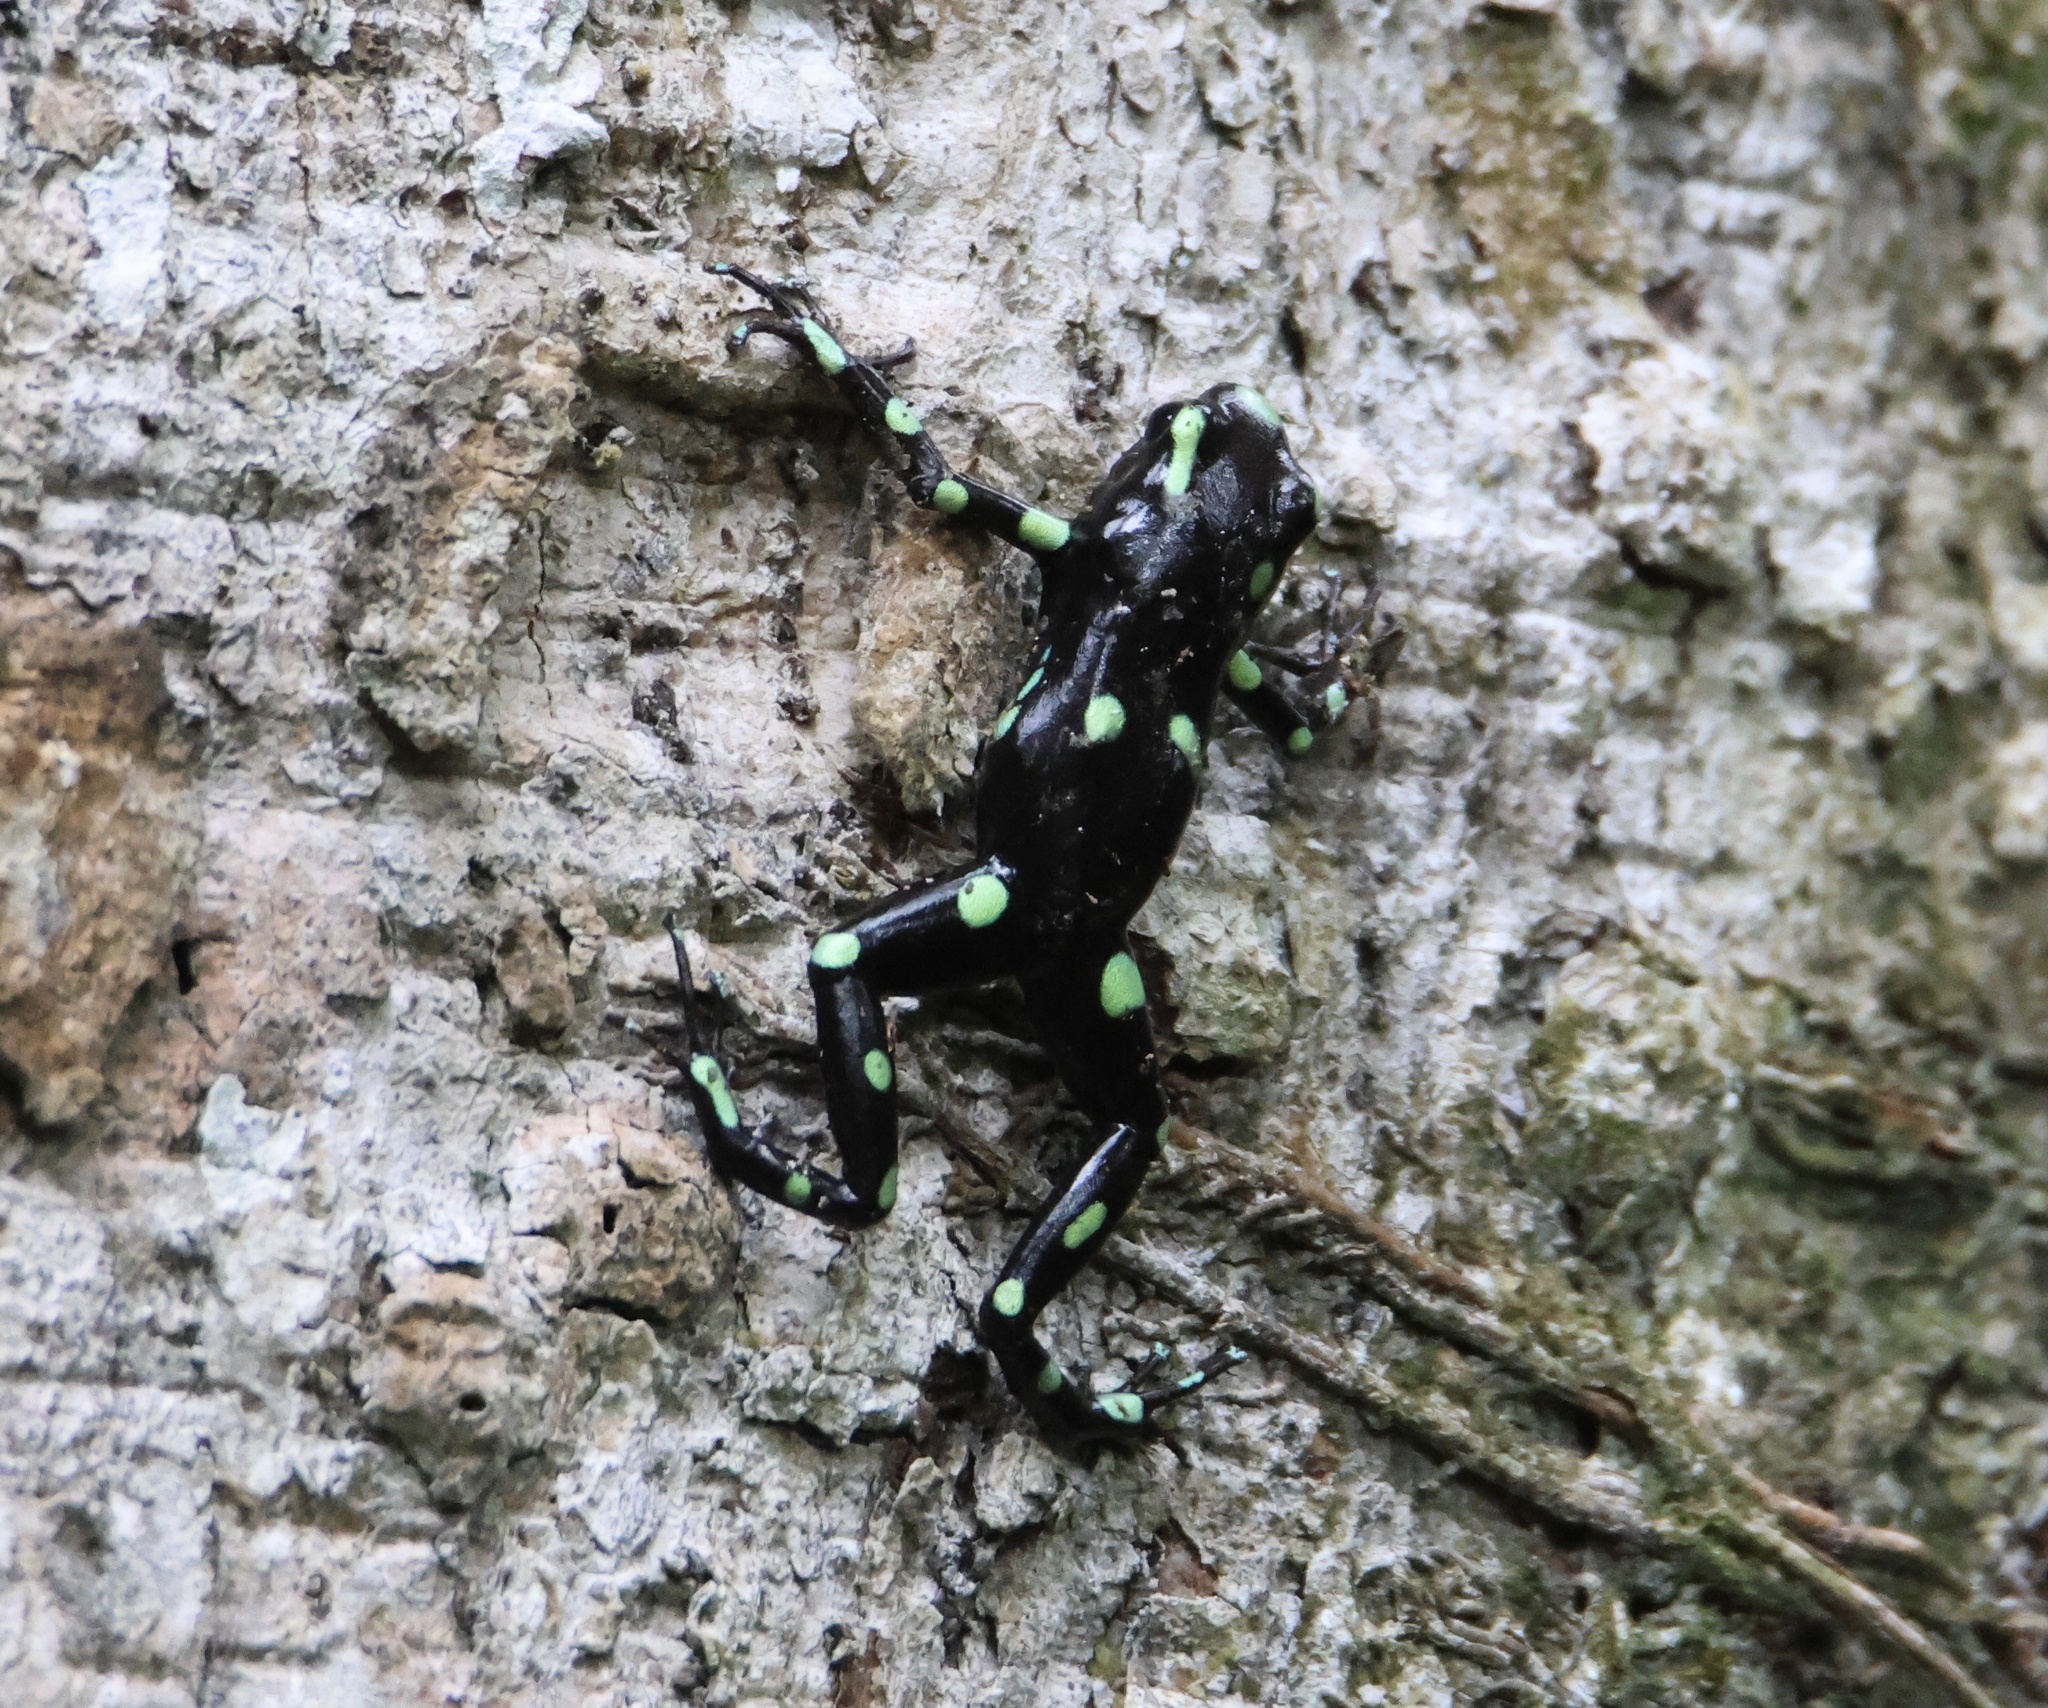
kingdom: Animalia
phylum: Chordata
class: Amphibia
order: Anura
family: Dendrobatidae
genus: Dendrobates
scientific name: Dendrobates auratus
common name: Green and black poison dart frog
